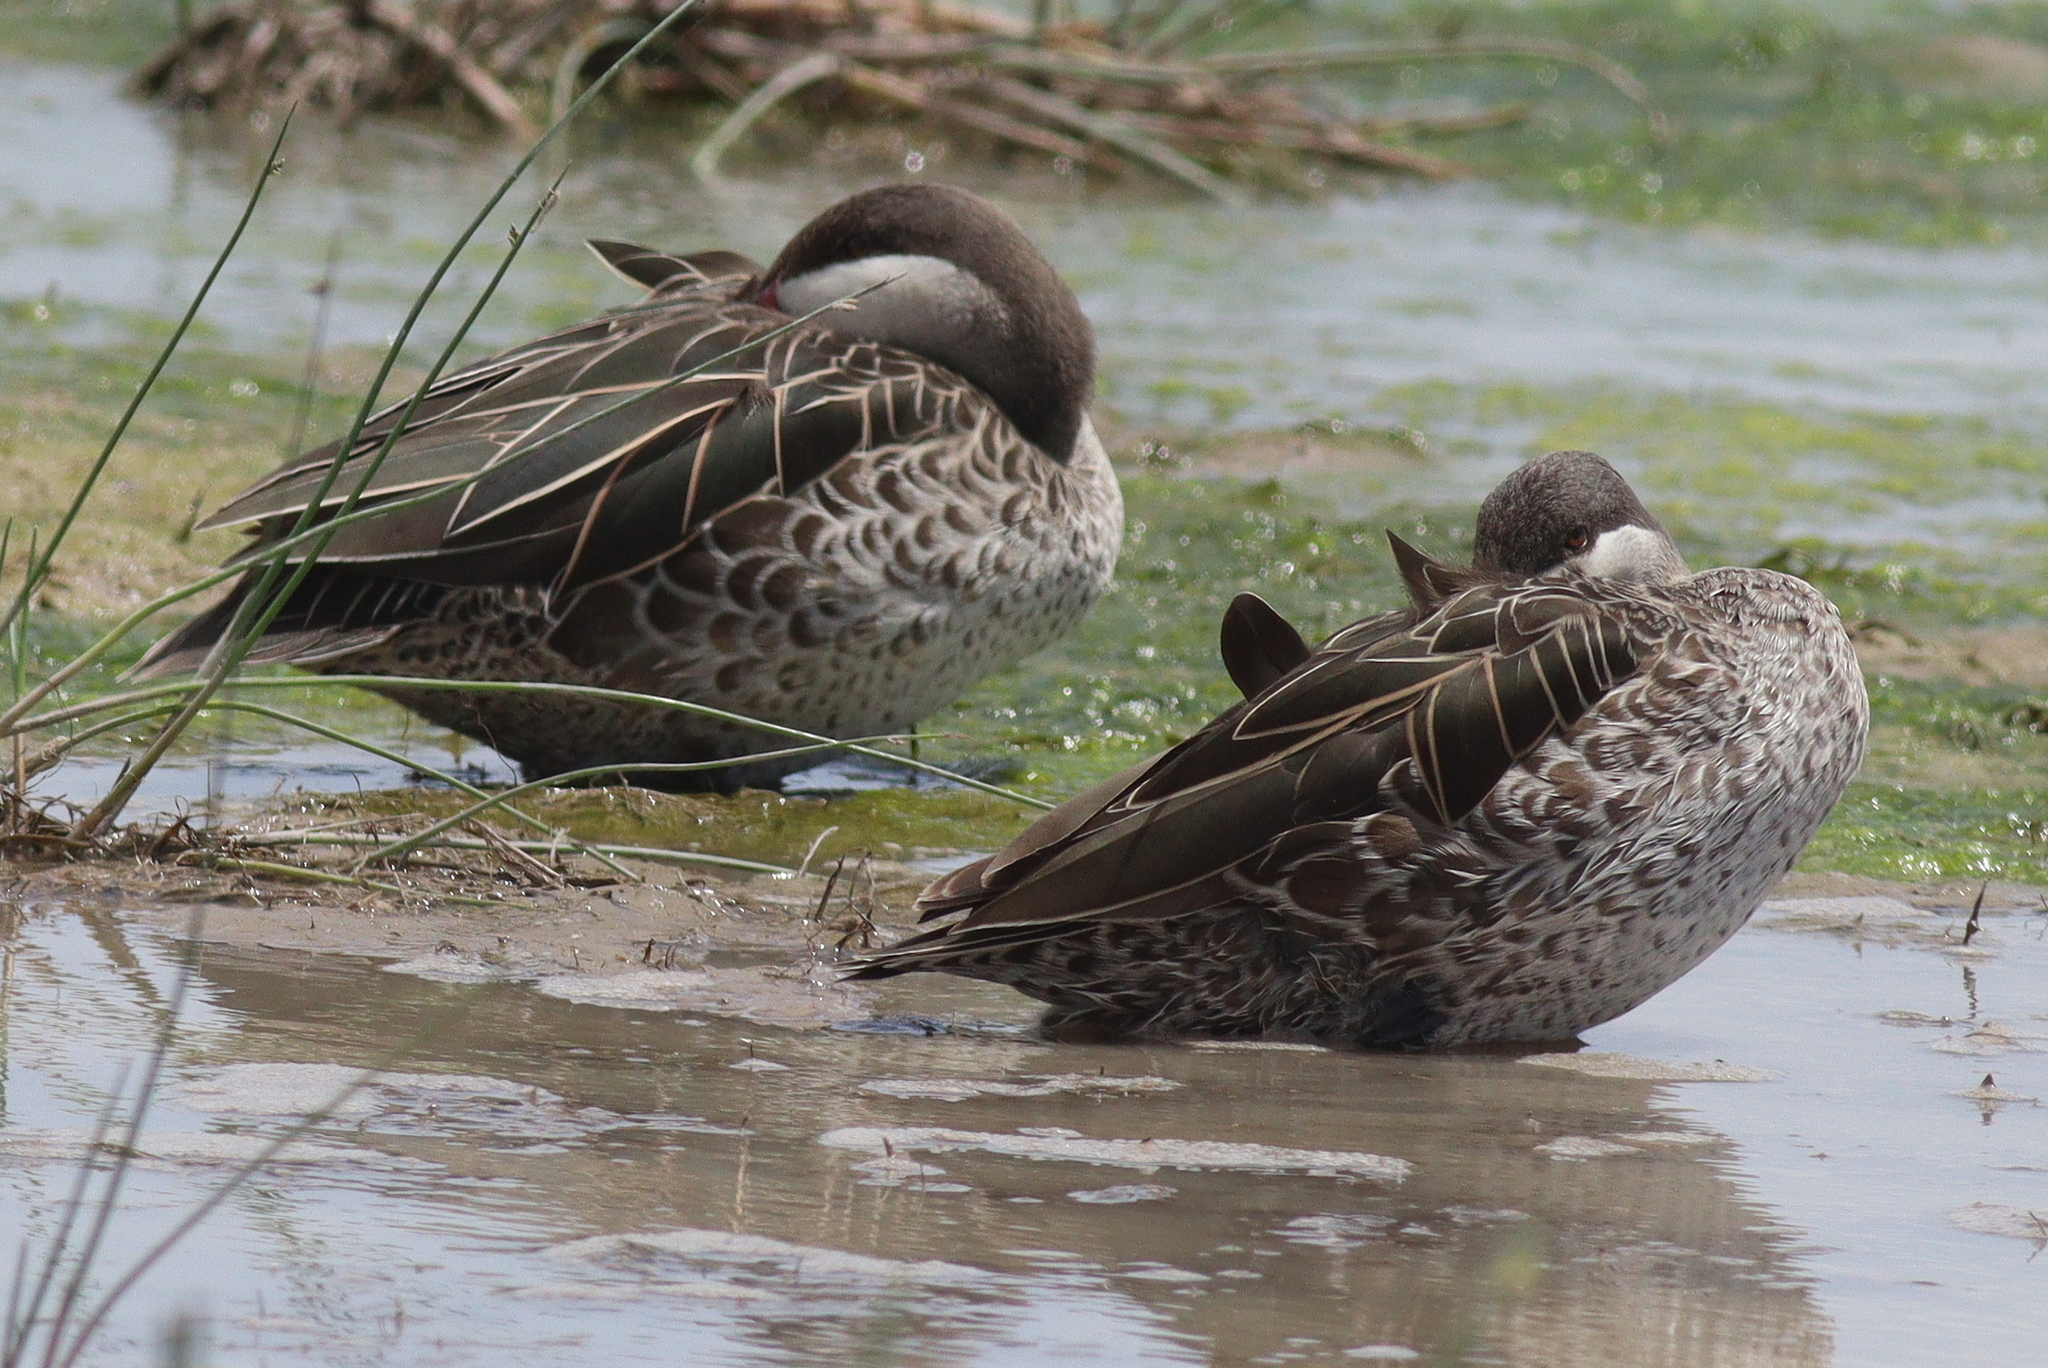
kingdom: Animalia
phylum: Chordata
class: Aves
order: Anseriformes
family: Anatidae
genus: Anas
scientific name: Anas erythrorhyncha
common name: Red-billed teal
